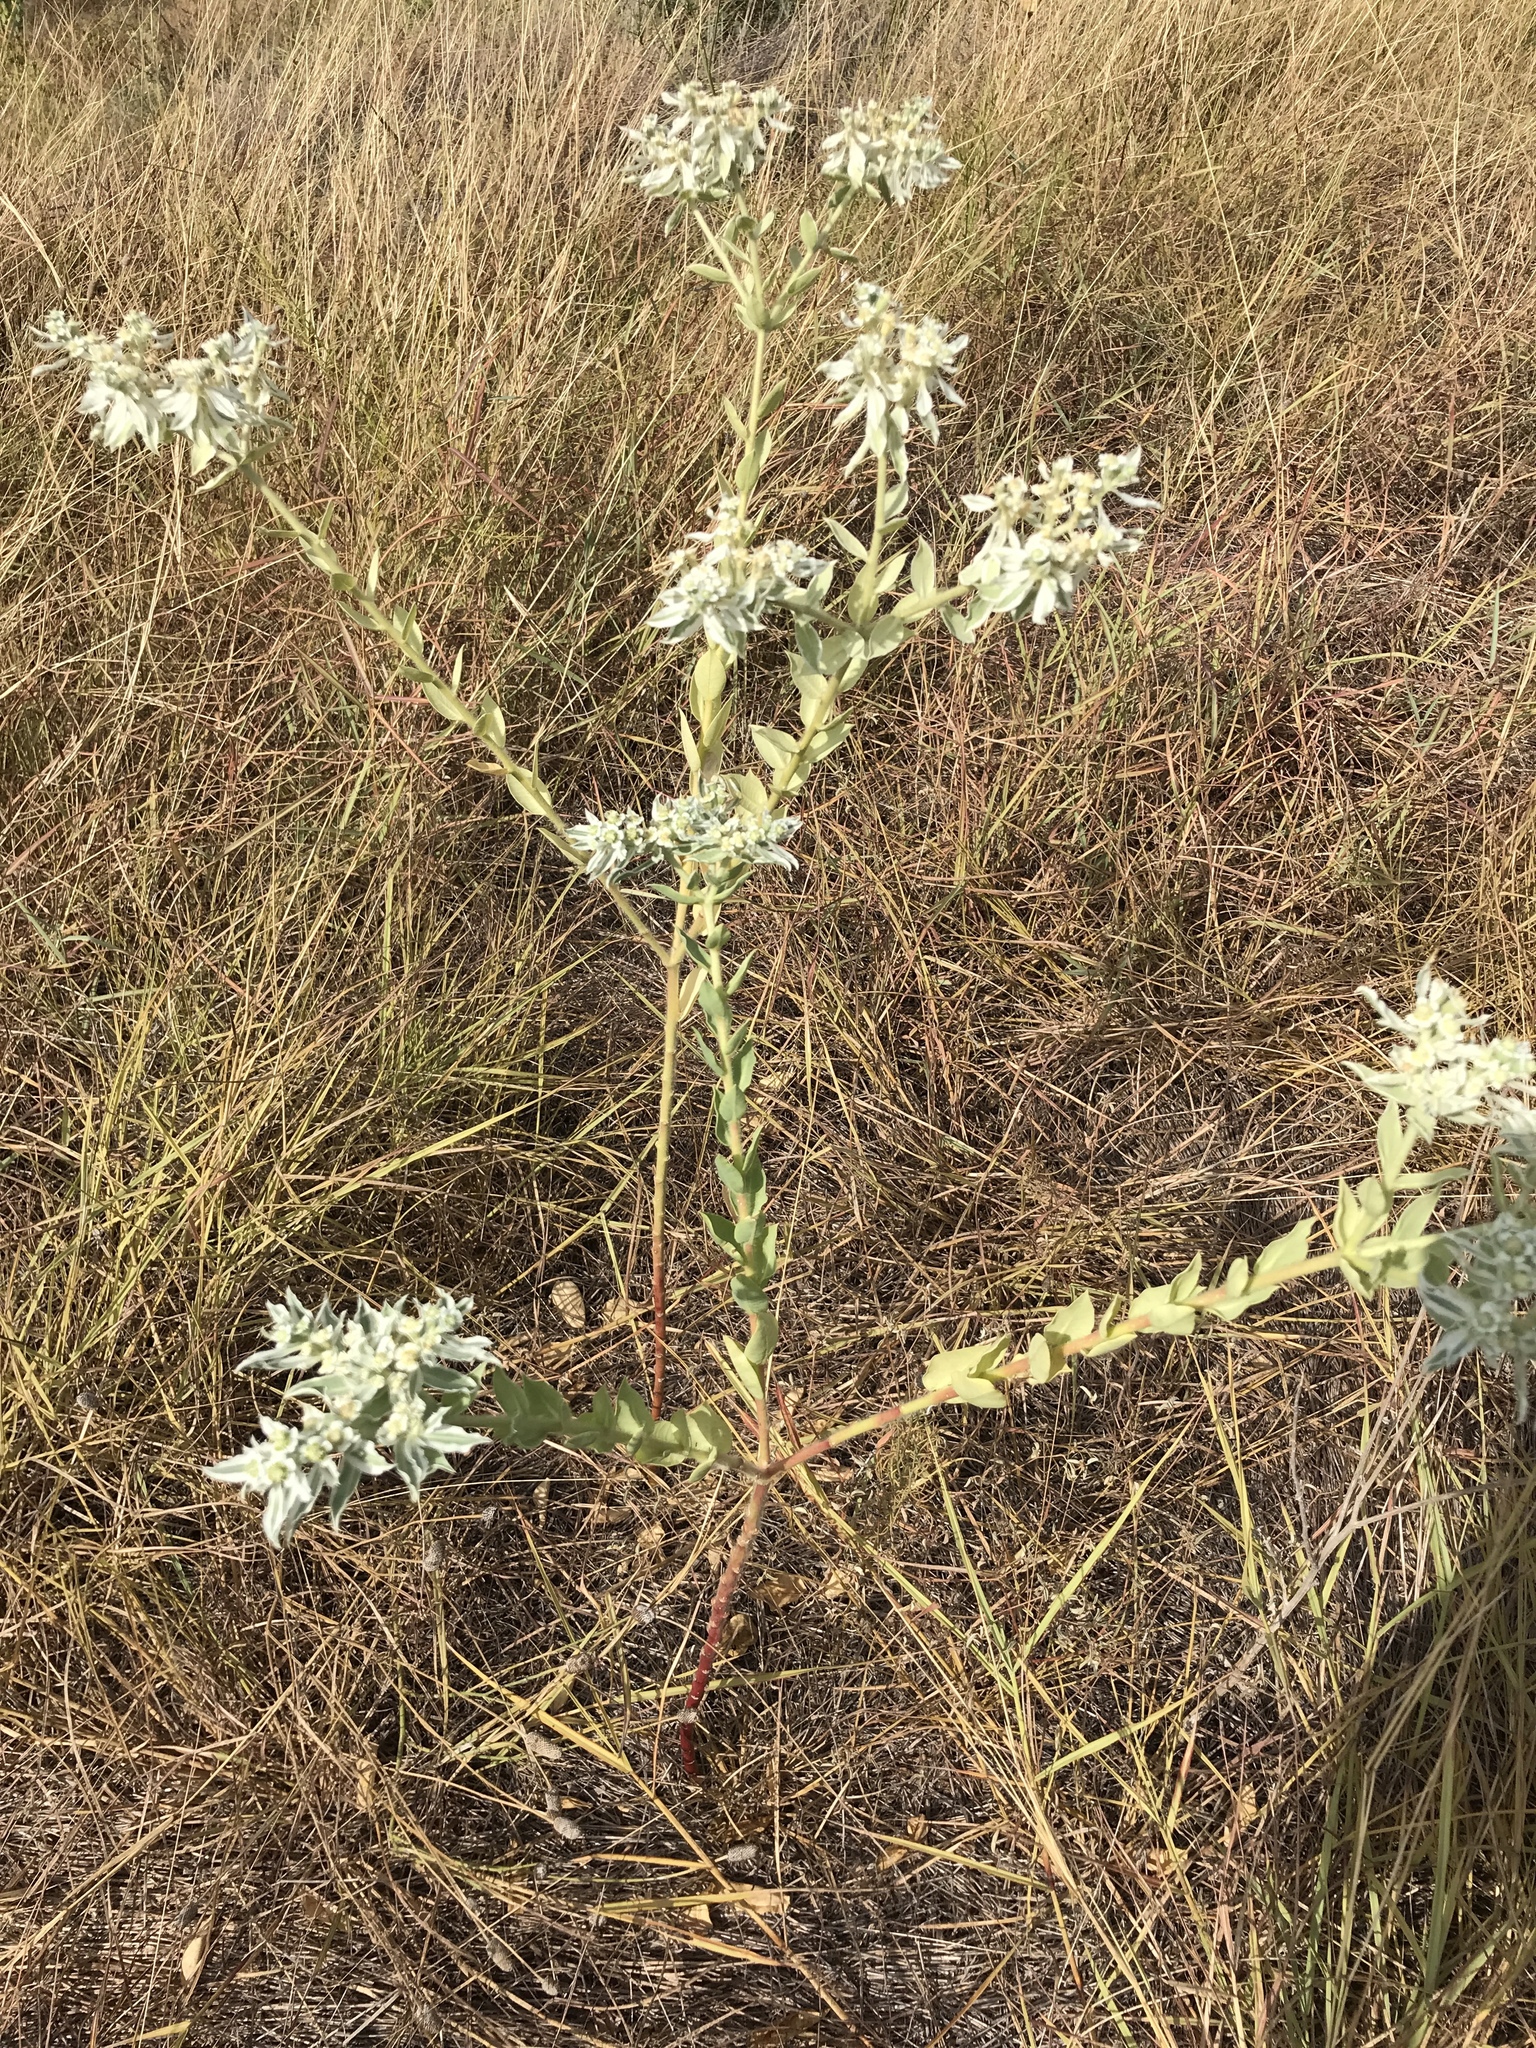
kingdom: Plantae
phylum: Tracheophyta
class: Magnoliopsida
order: Malpighiales
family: Euphorbiaceae
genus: Euphorbia
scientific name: Euphorbia marginata
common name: Ghostweed
